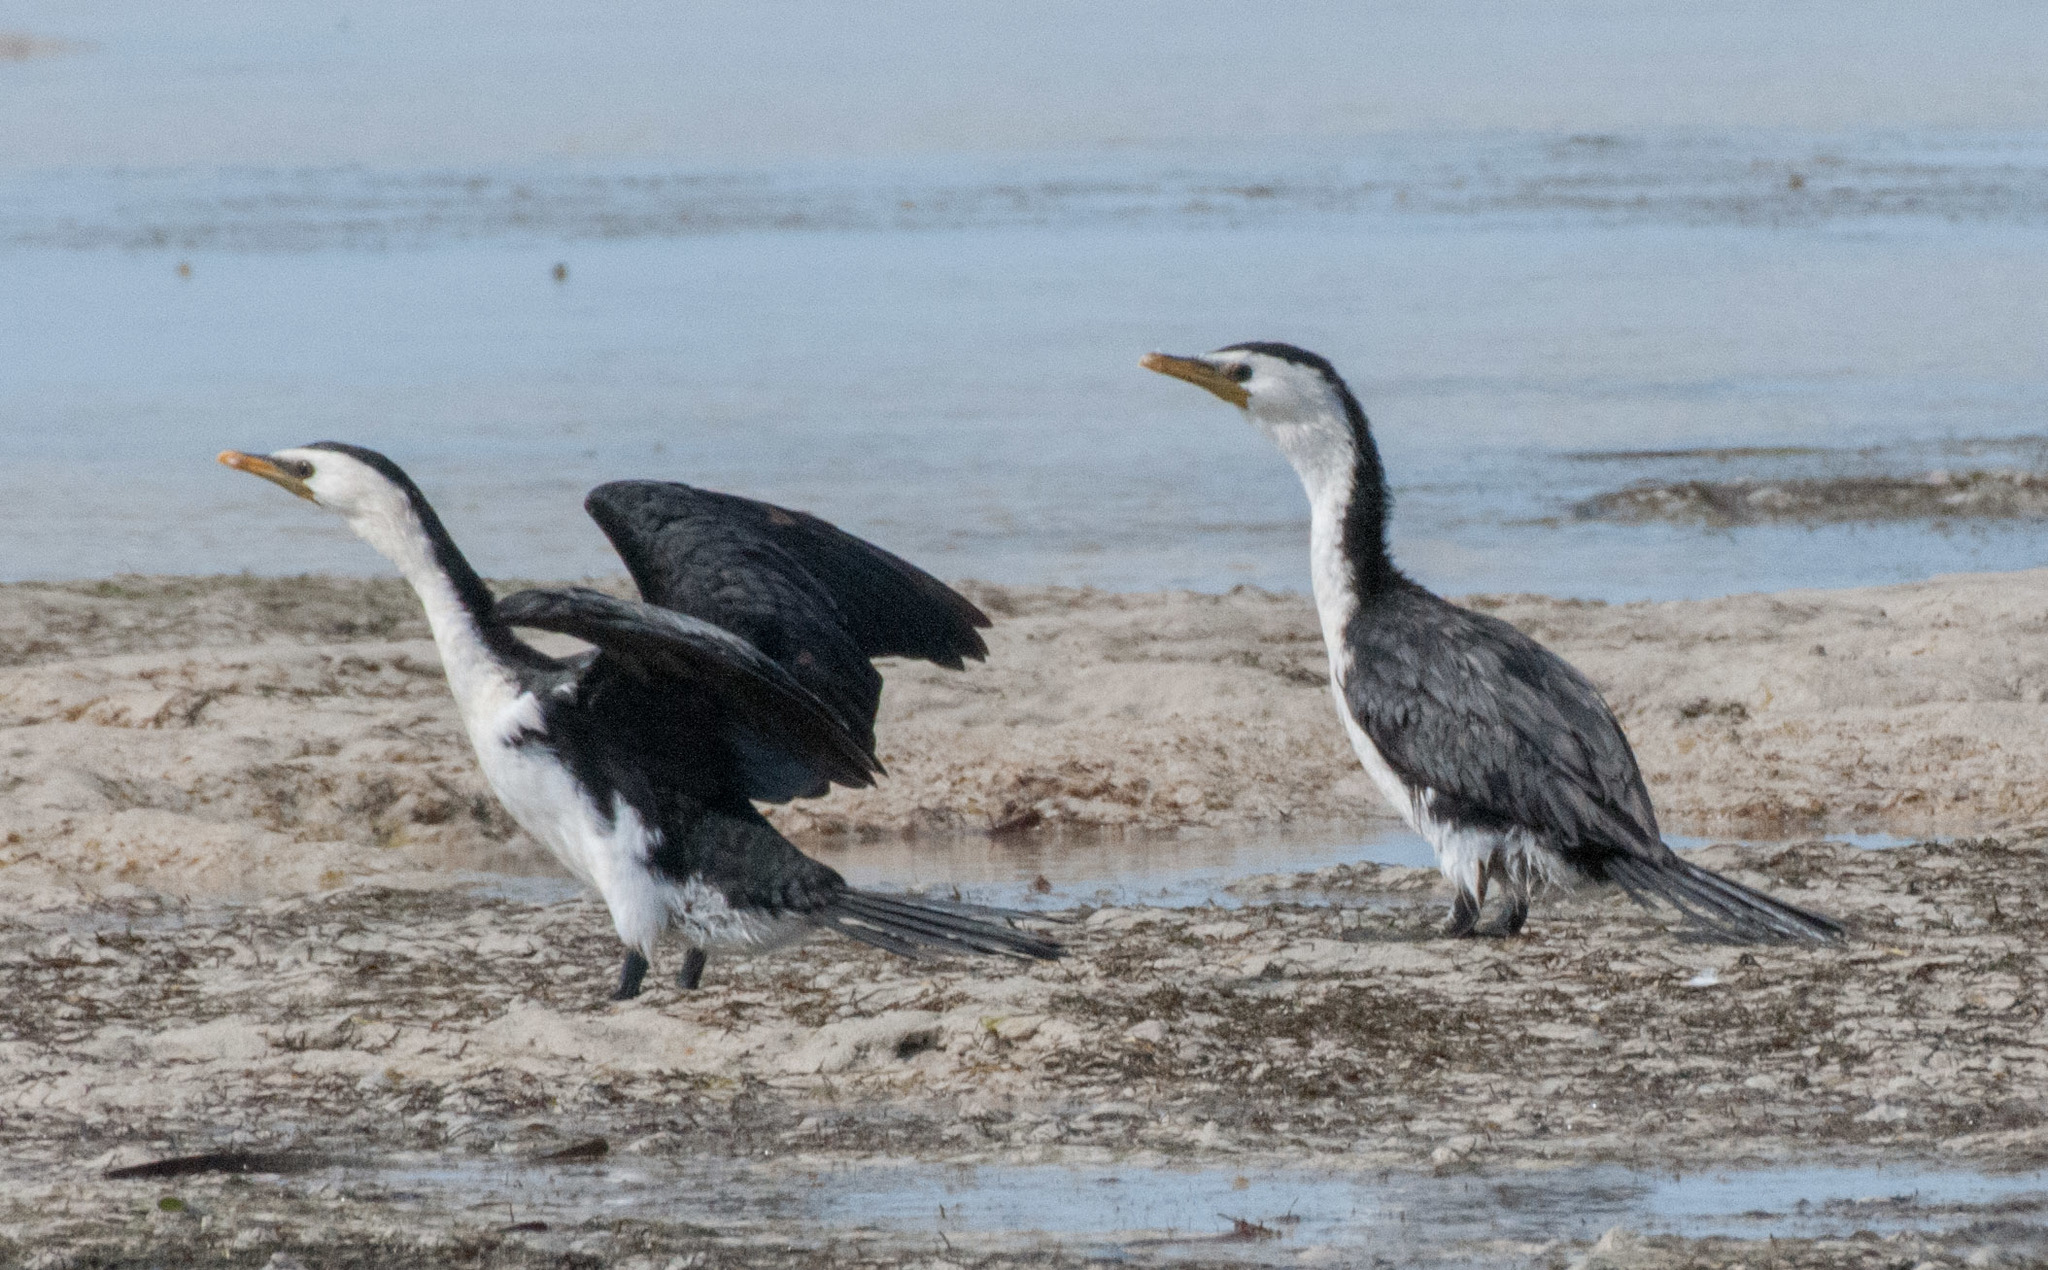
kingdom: Animalia
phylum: Chordata
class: Aves
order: Suliformes
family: Phalacrocoracidae
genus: Microcarbo
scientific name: Microcarbo melanoleucos
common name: Little pied cormorant
